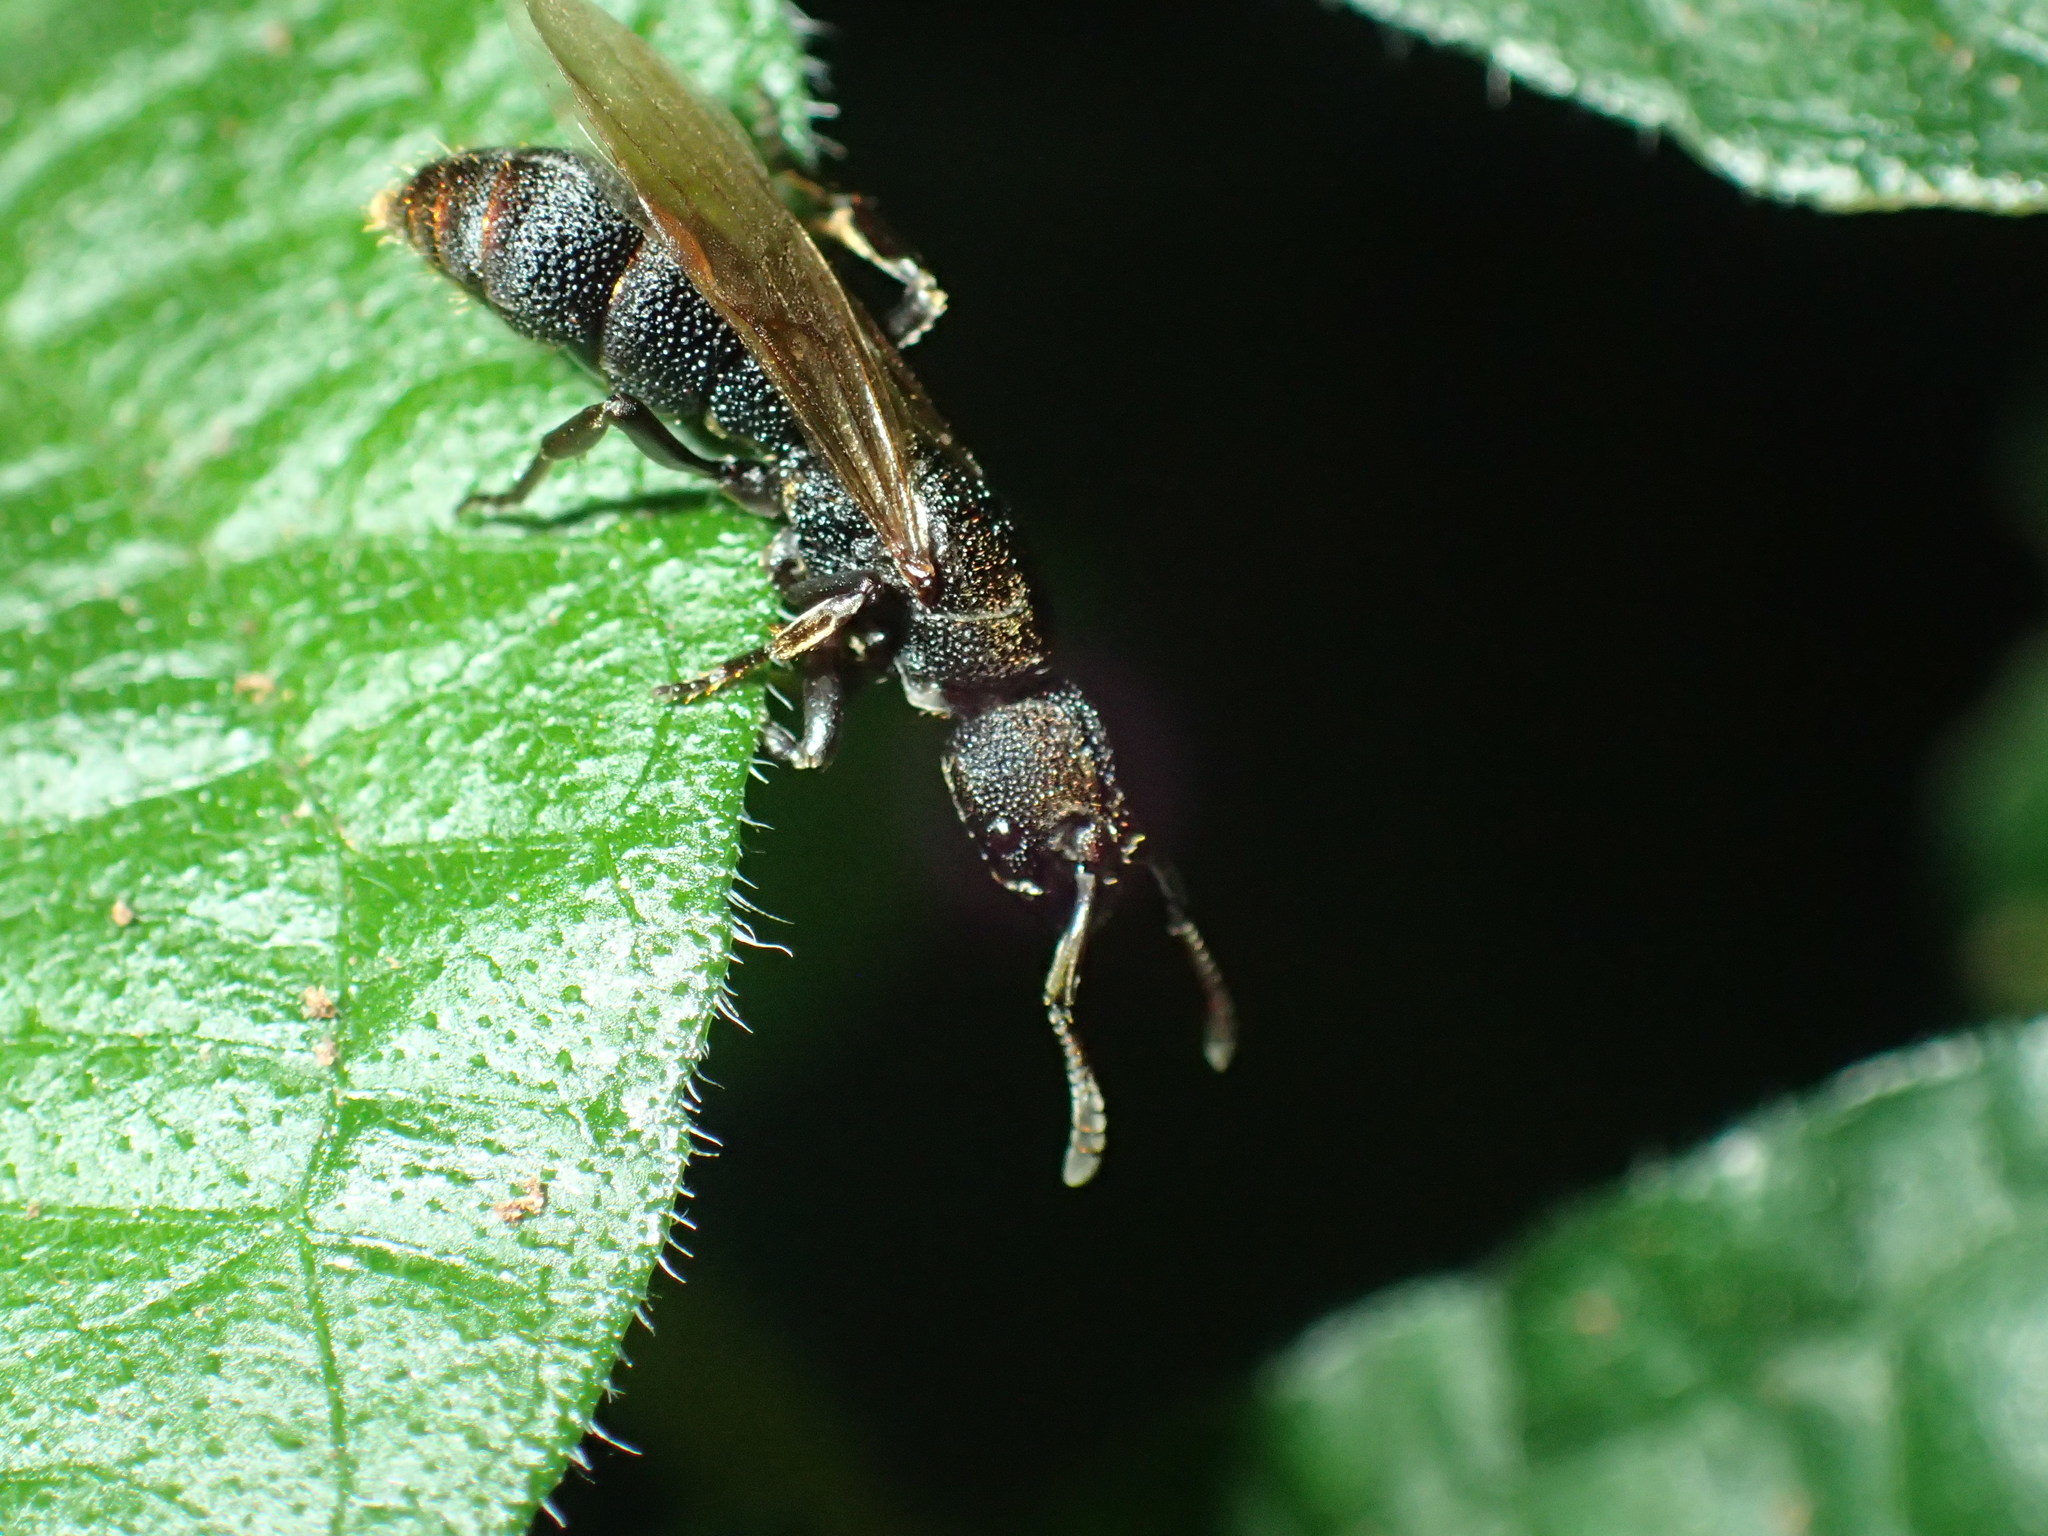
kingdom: Animalia
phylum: Arthropoda
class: Insecta
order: Hymenoptera
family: Formicidae
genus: Bothroponera
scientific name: Bothroponera
